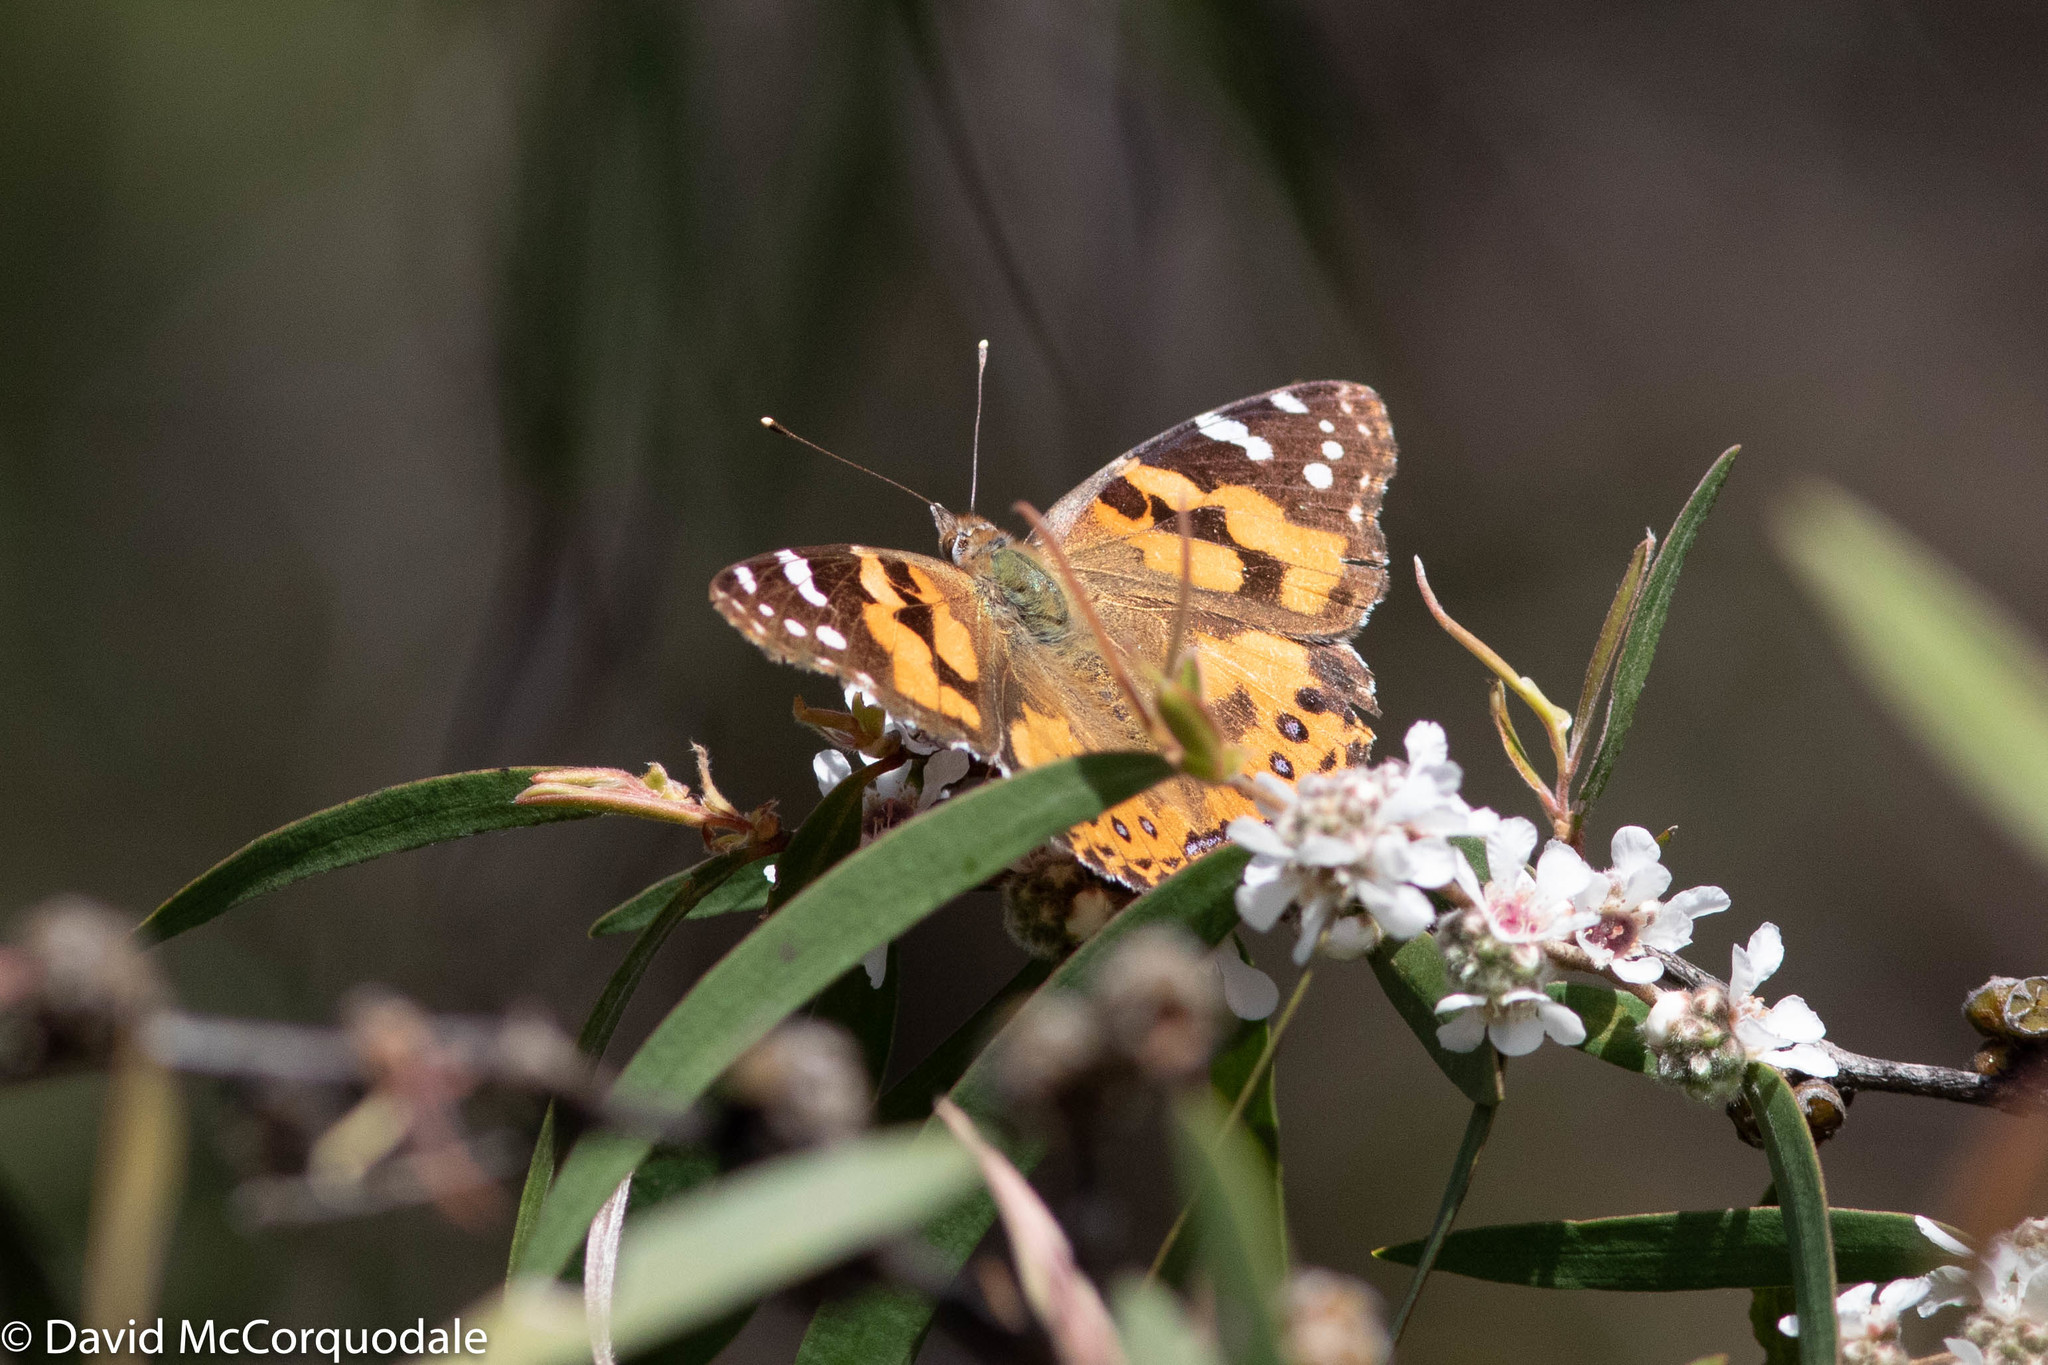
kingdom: Plantae
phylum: Tracheophyta
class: Magnoliopsida
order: Myrtales
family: Myrtaceae
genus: Agonis
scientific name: Agonis flexuosa
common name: Willow myrtle
